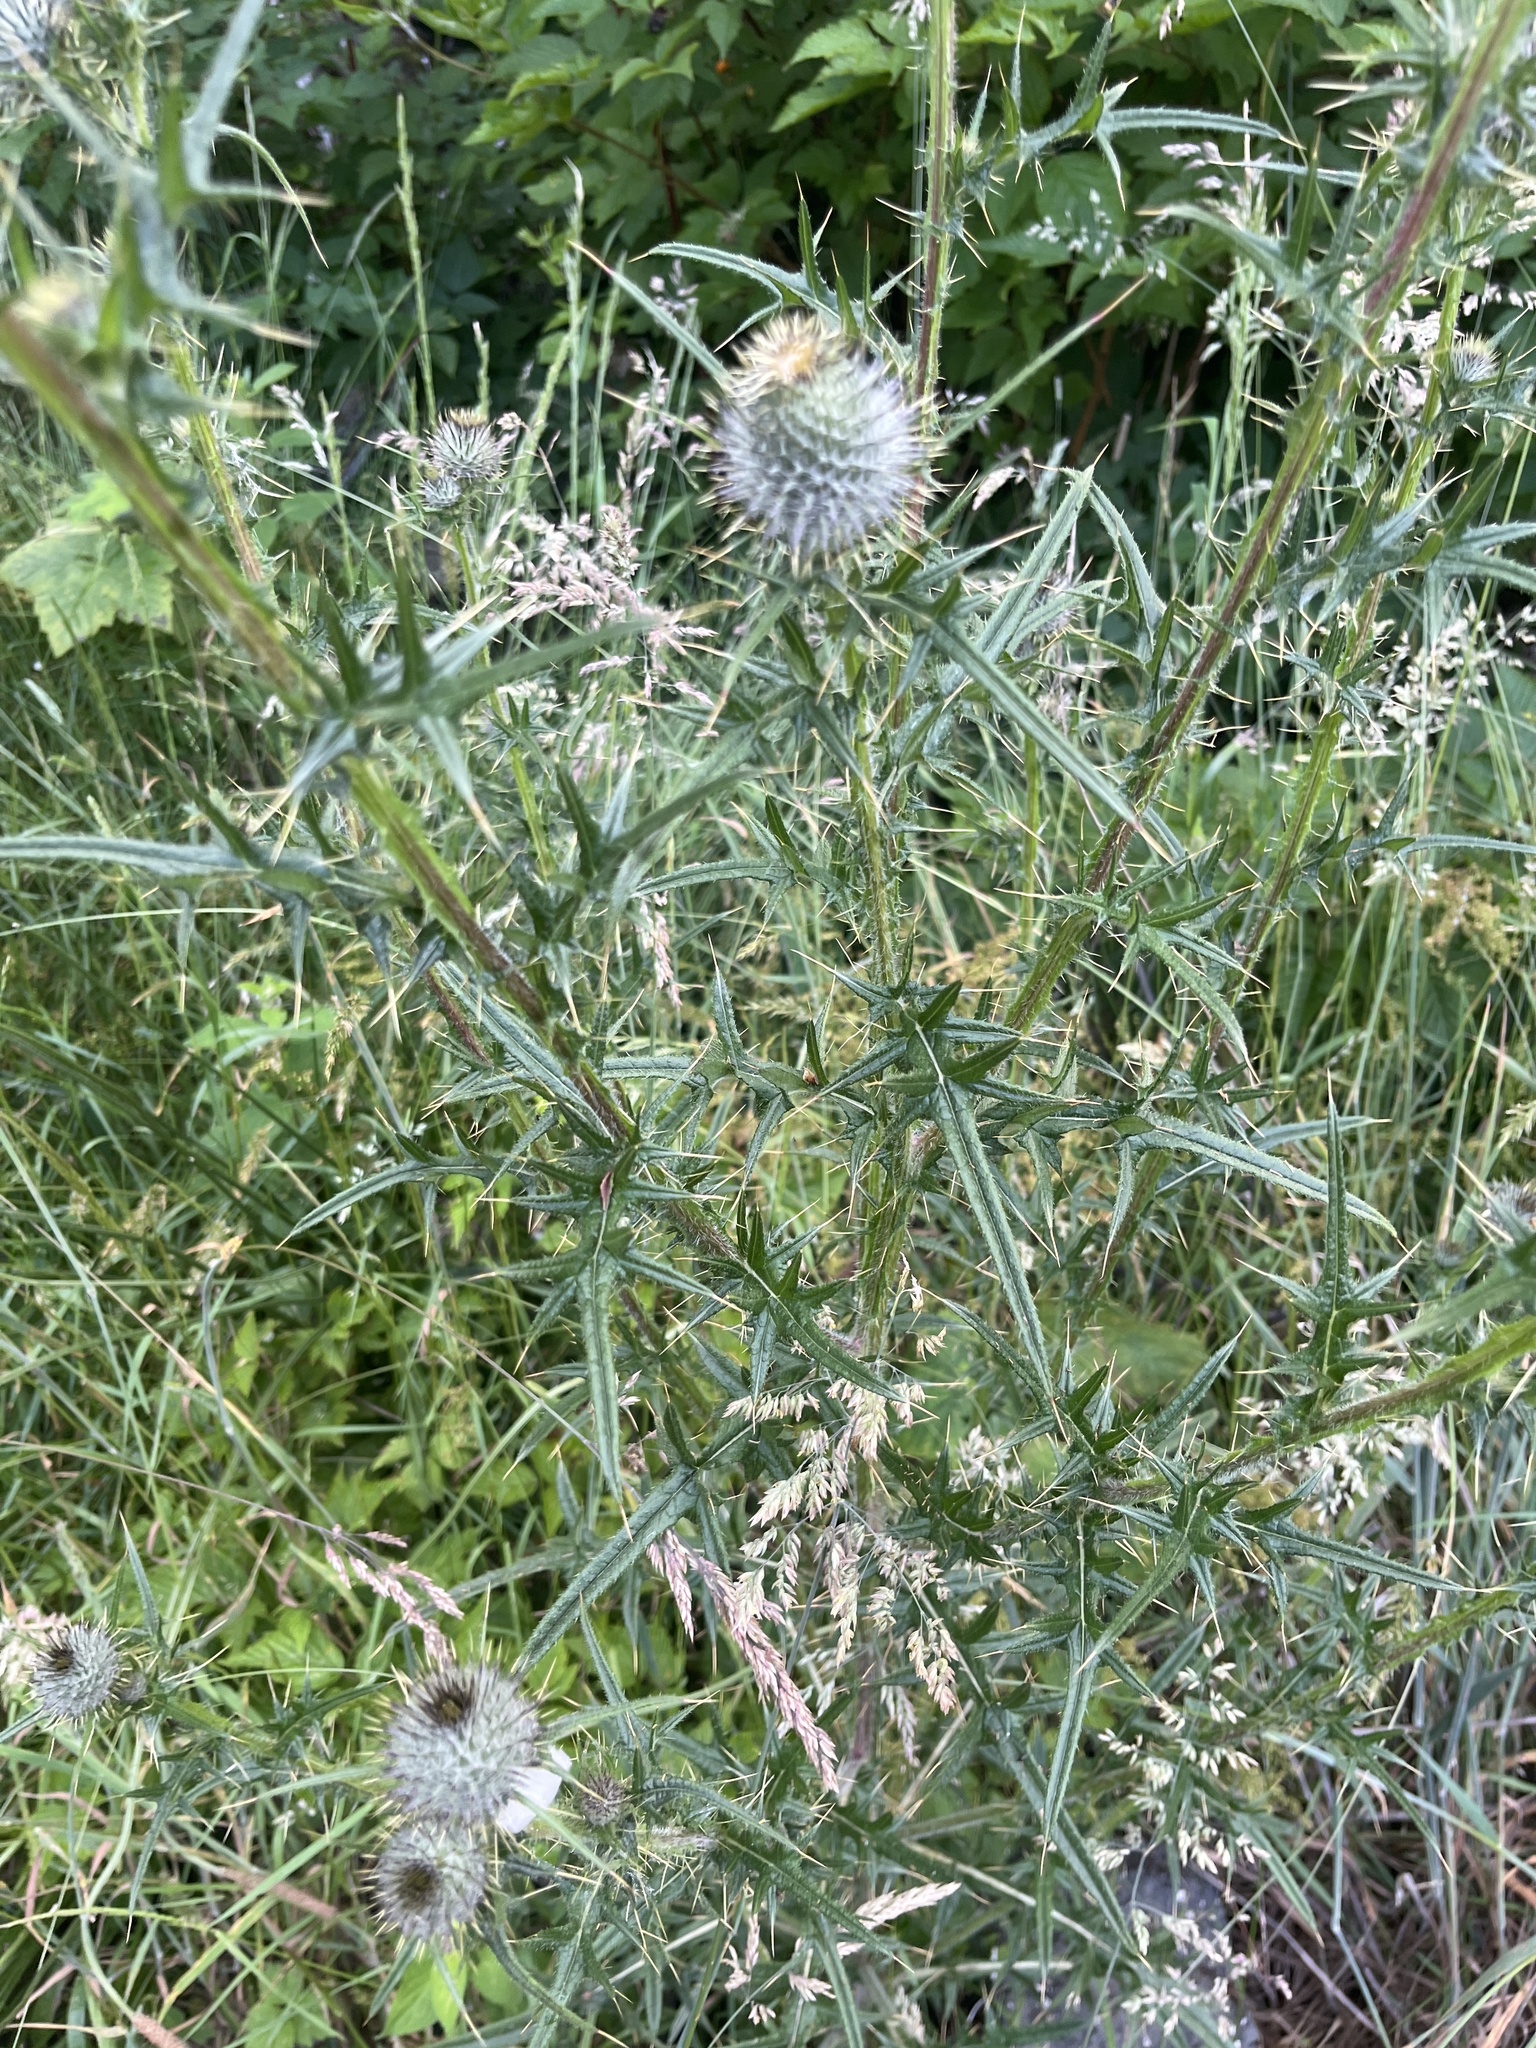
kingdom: Plantae
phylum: Tracheophyta
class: Magnoliopsida
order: Asterales
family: Asteraceae
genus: Cirsium
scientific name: Cirsium vulgare
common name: Bull thistle
